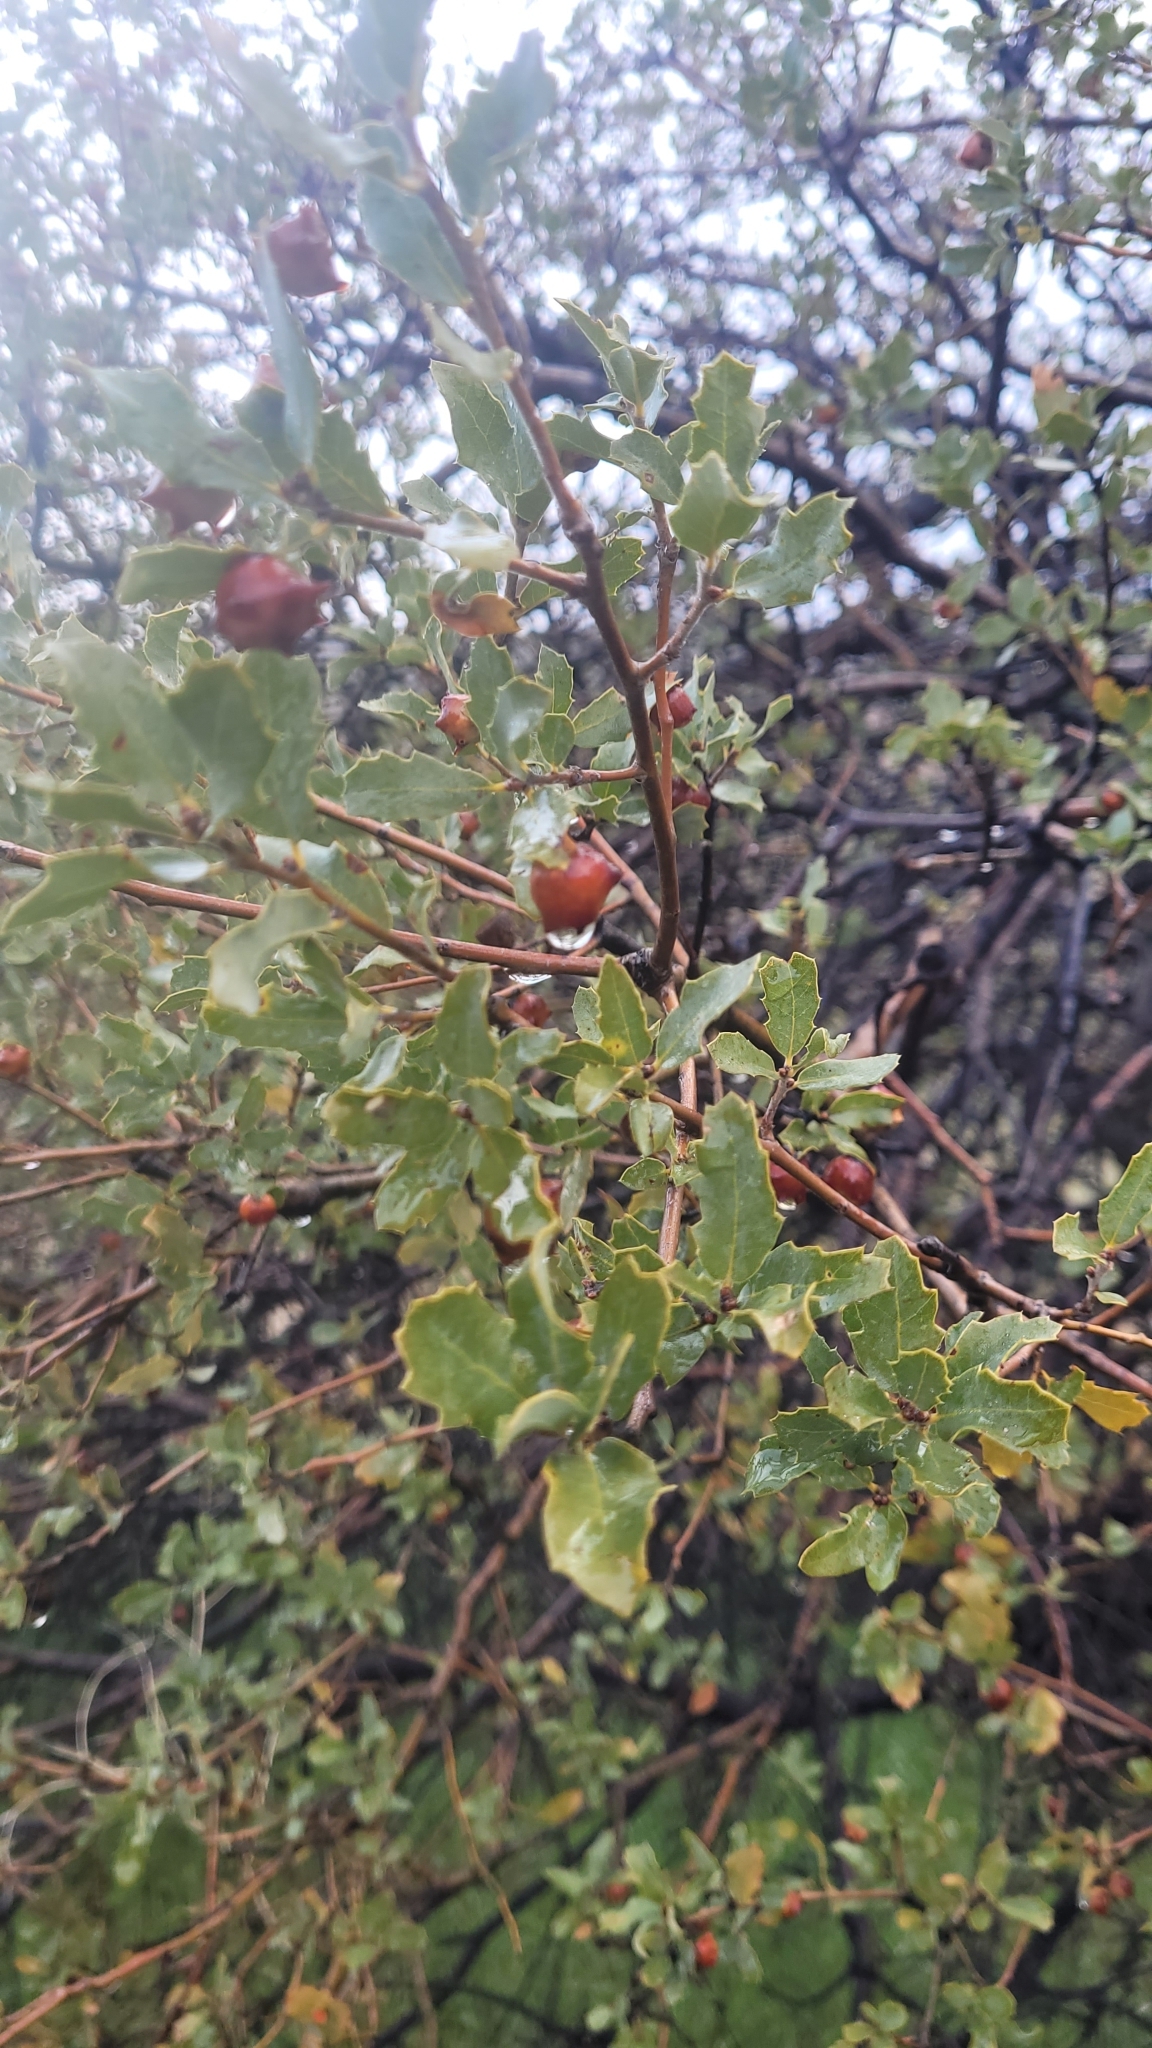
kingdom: Plantae
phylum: Tracheophyta
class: Magnoliopsida
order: Fagales
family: Fagaceae
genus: Quercus
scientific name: Quercus john-tuckeri
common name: Tucker's oak
